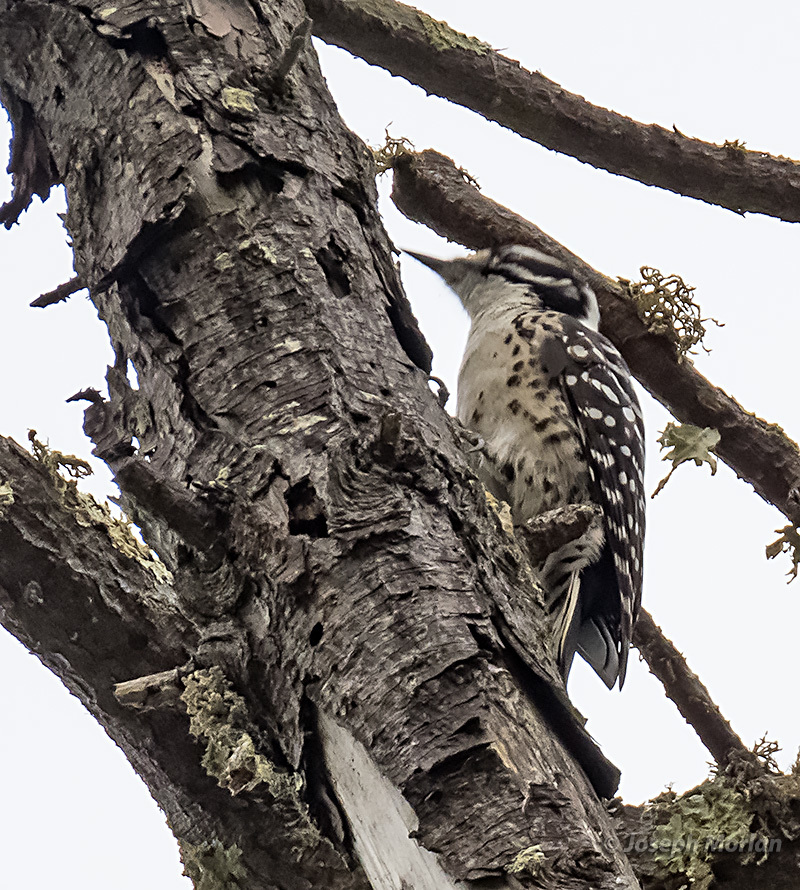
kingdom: Animalia
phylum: Chordata
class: Aves
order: Piciformes
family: Picidae
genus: Dryobates
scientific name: Dryobates nuttallii
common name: Nuttall's woodpecker
